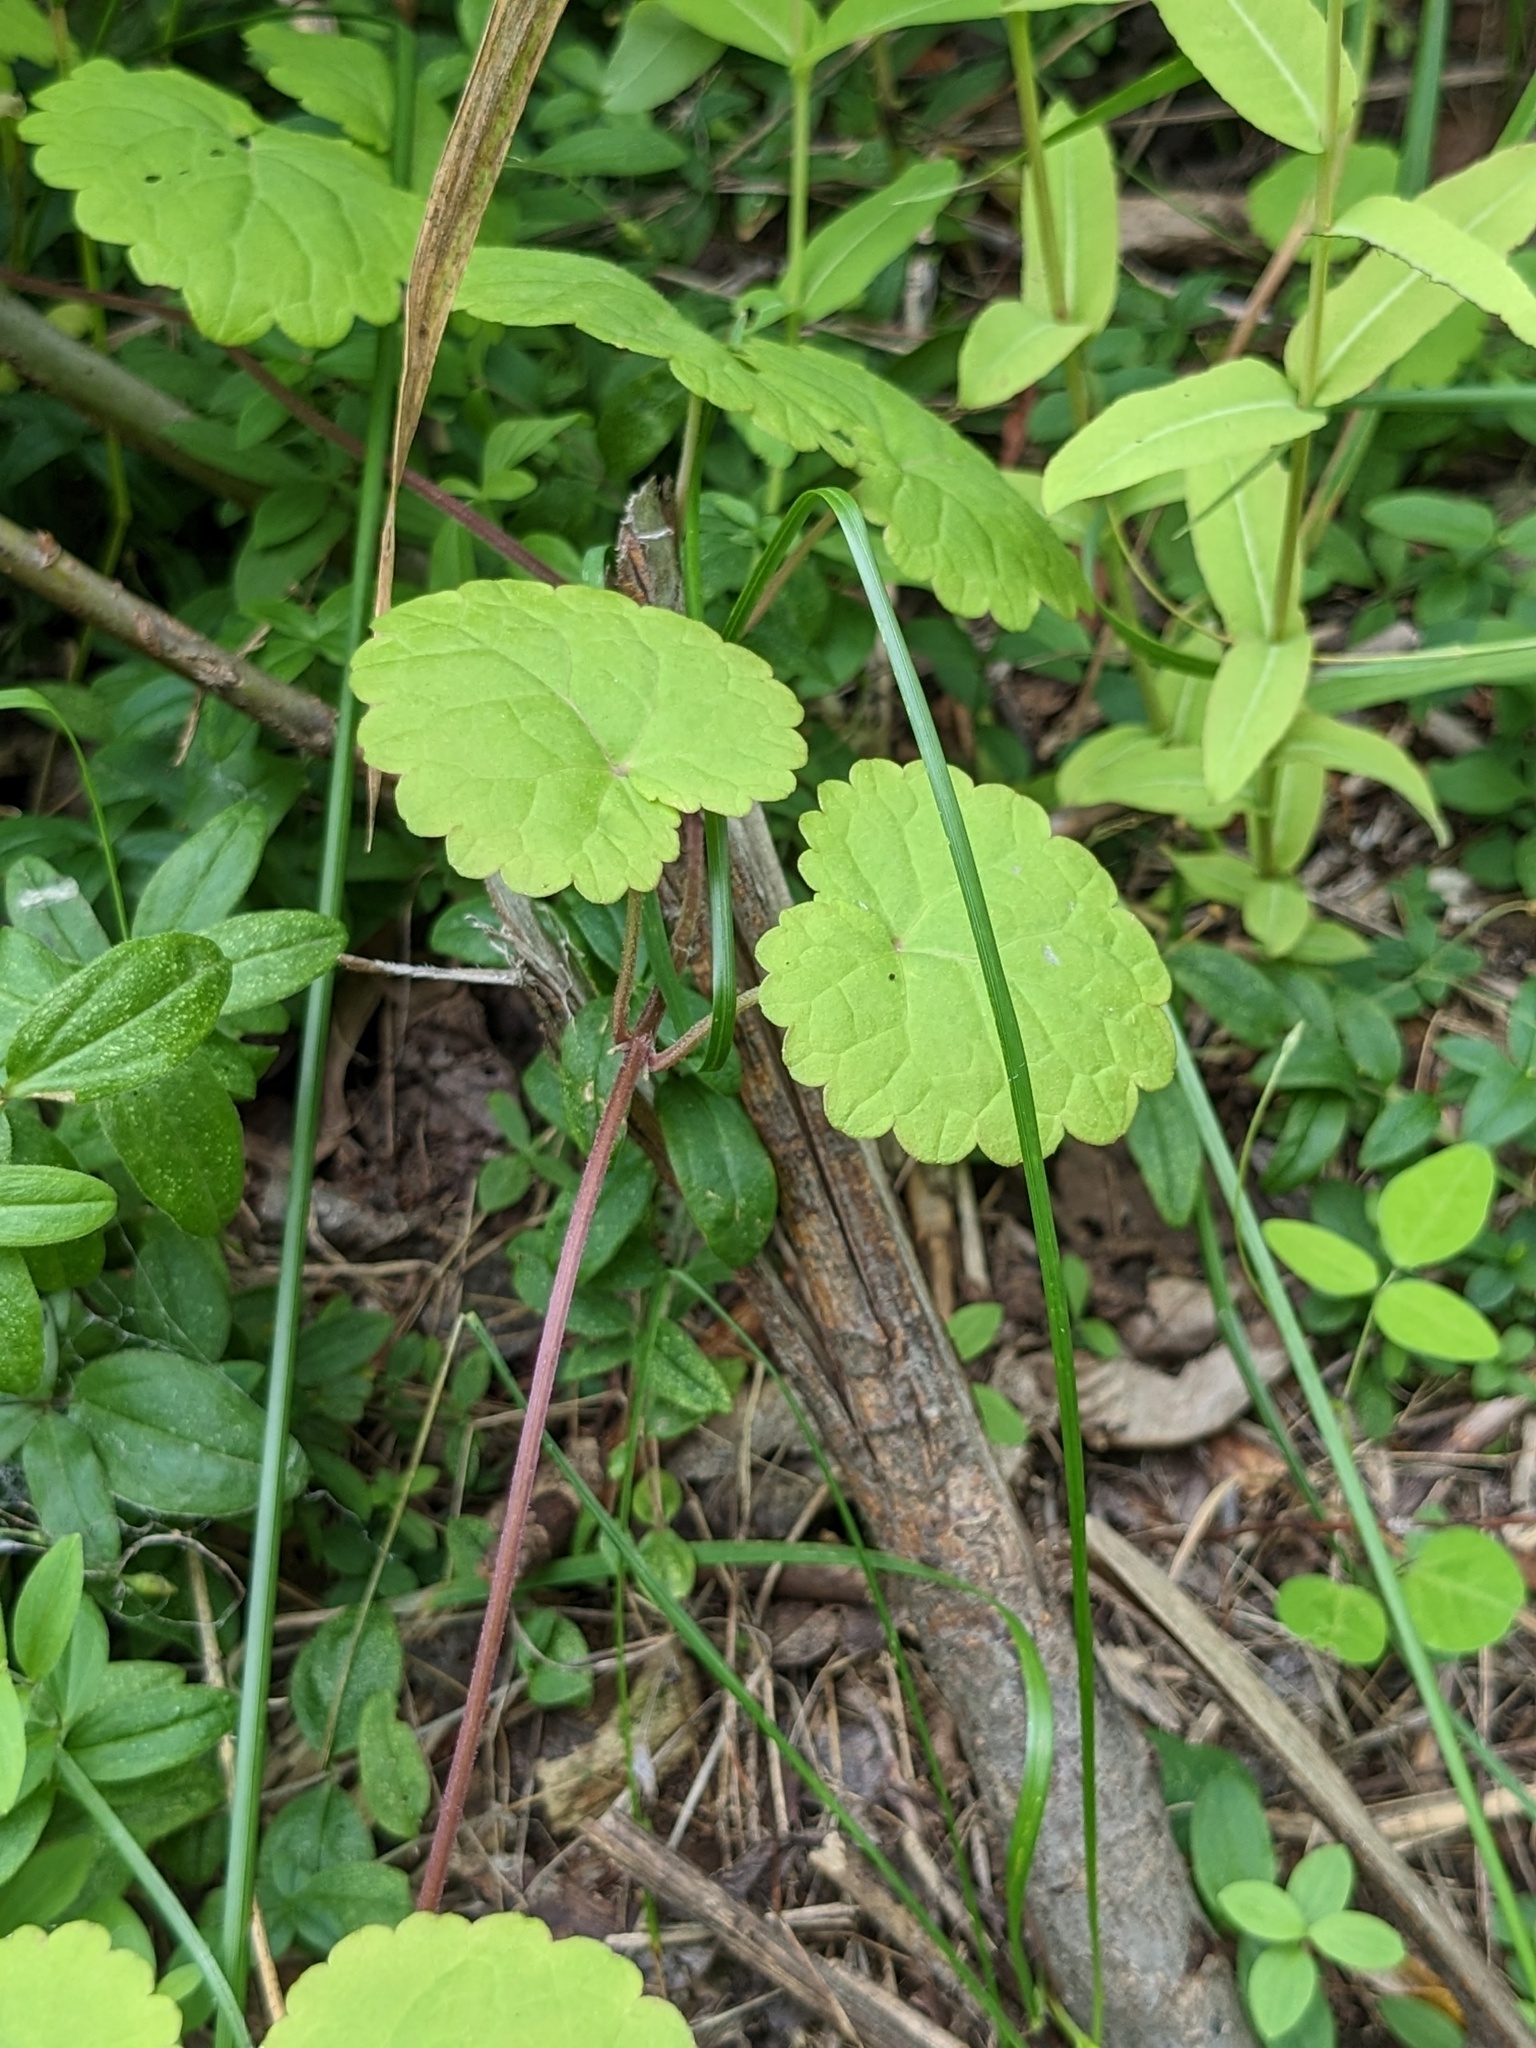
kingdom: Plantae
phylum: Tracheophyta
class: Magnoliopsida
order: Lamiales
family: Lamiaceae
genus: Glechoma
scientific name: Glechoma longituba
